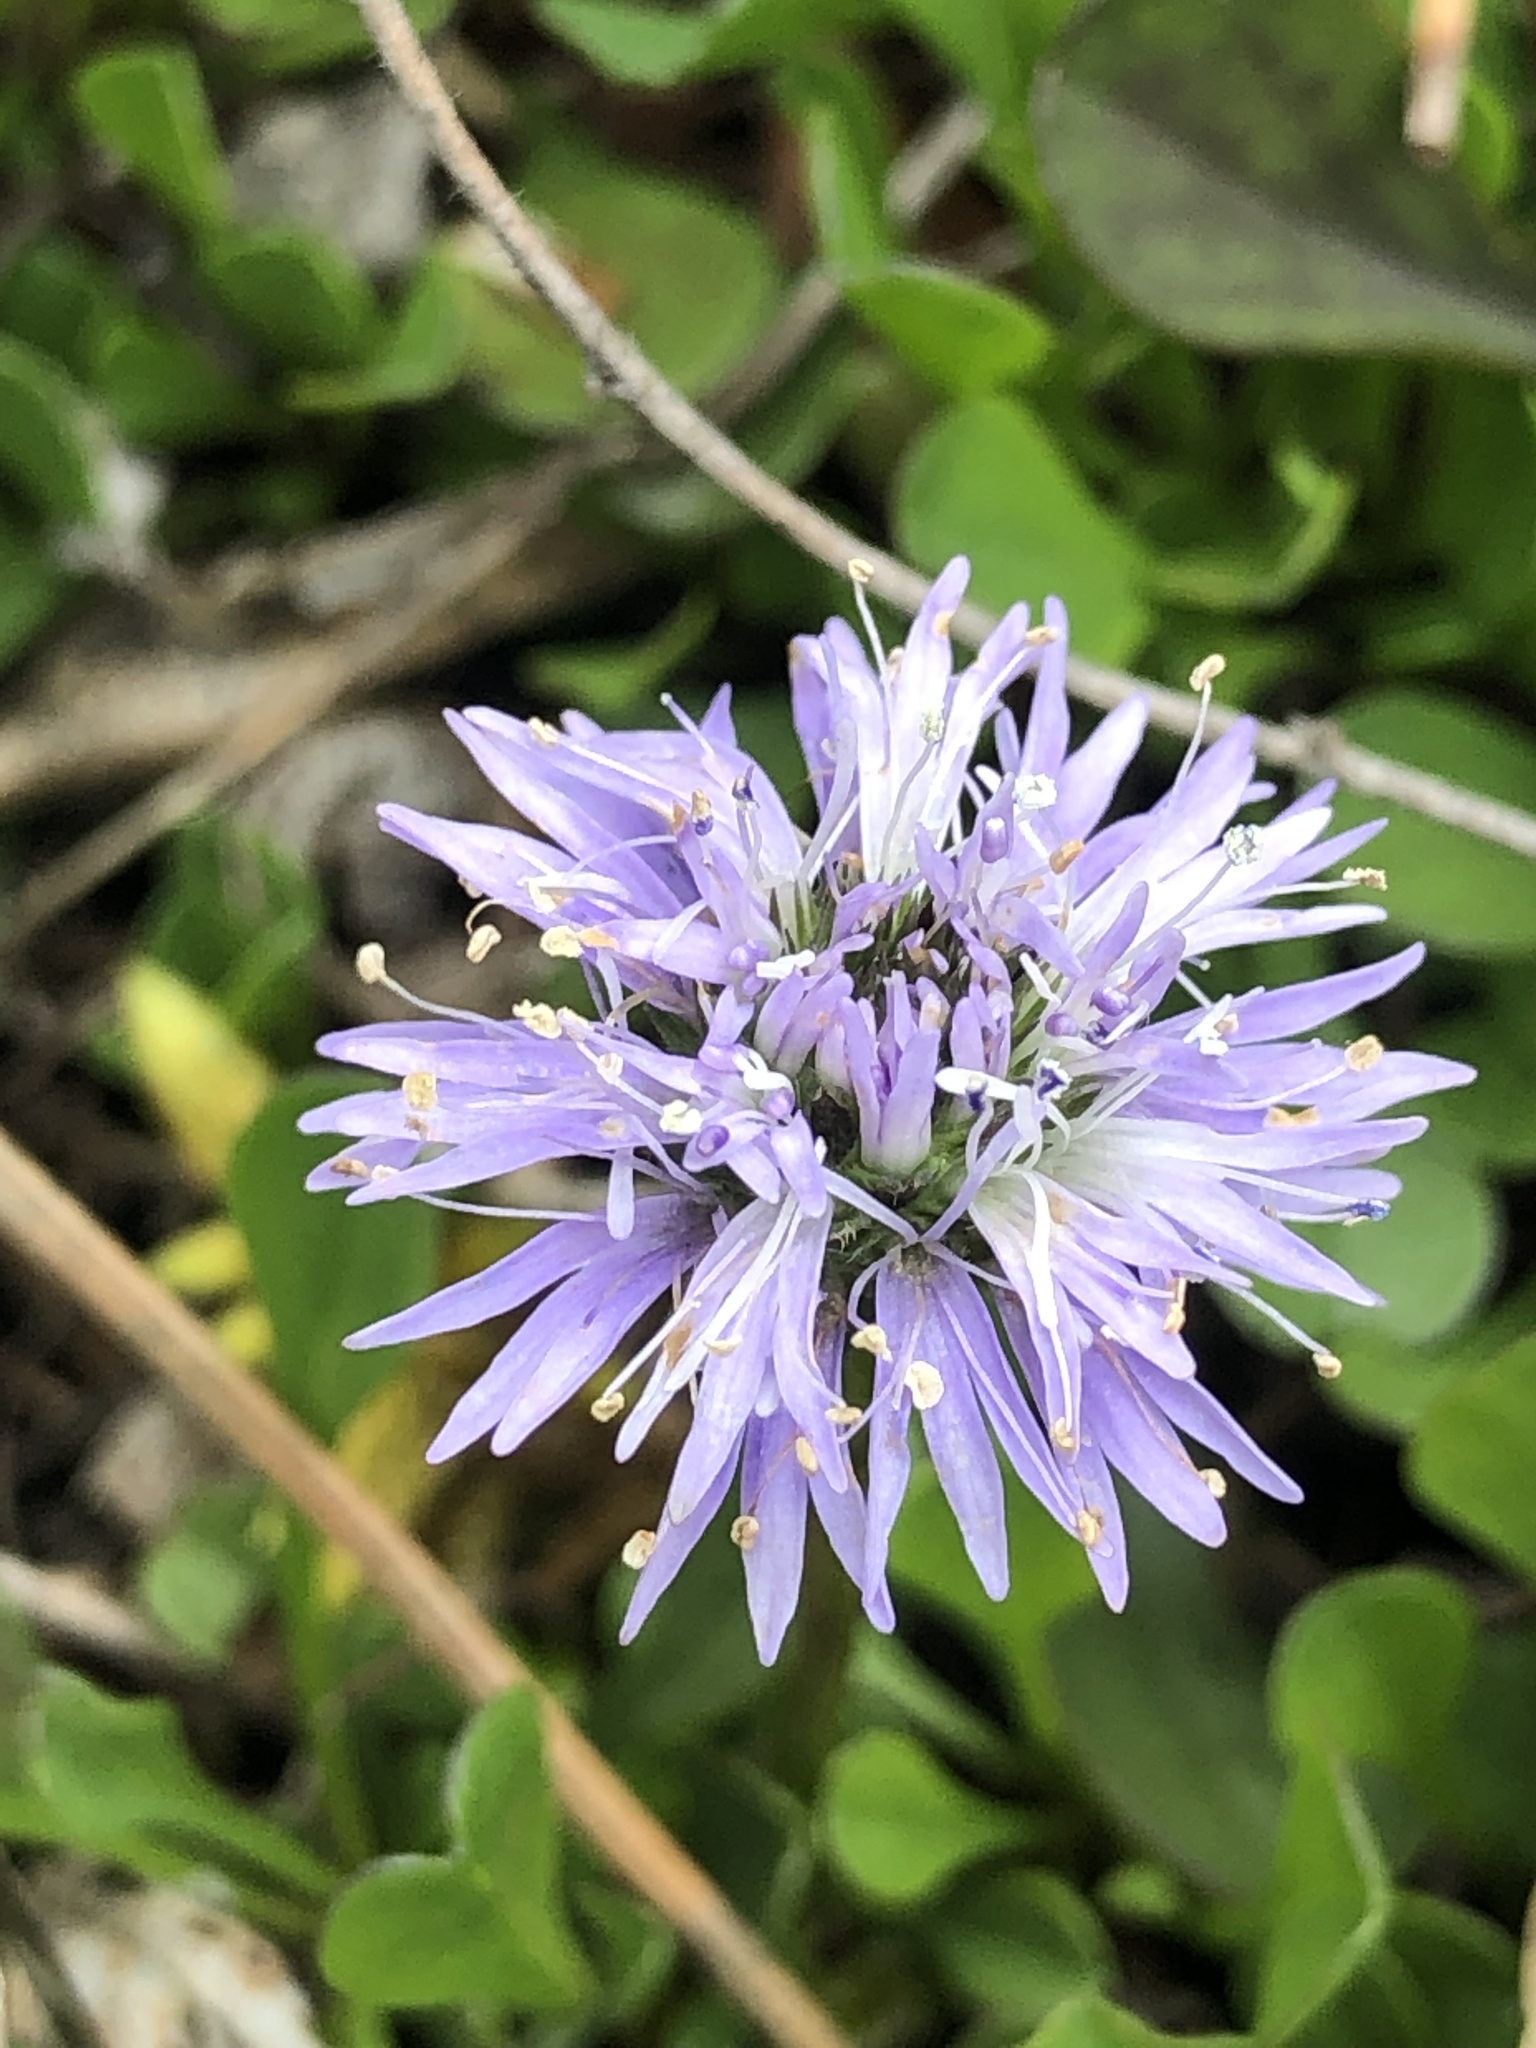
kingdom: Plantae
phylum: Tracheophyta
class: Magnoliopsida
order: Lamiales
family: Plantaginaceae
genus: Globularia
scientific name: Globularia cordifolia
